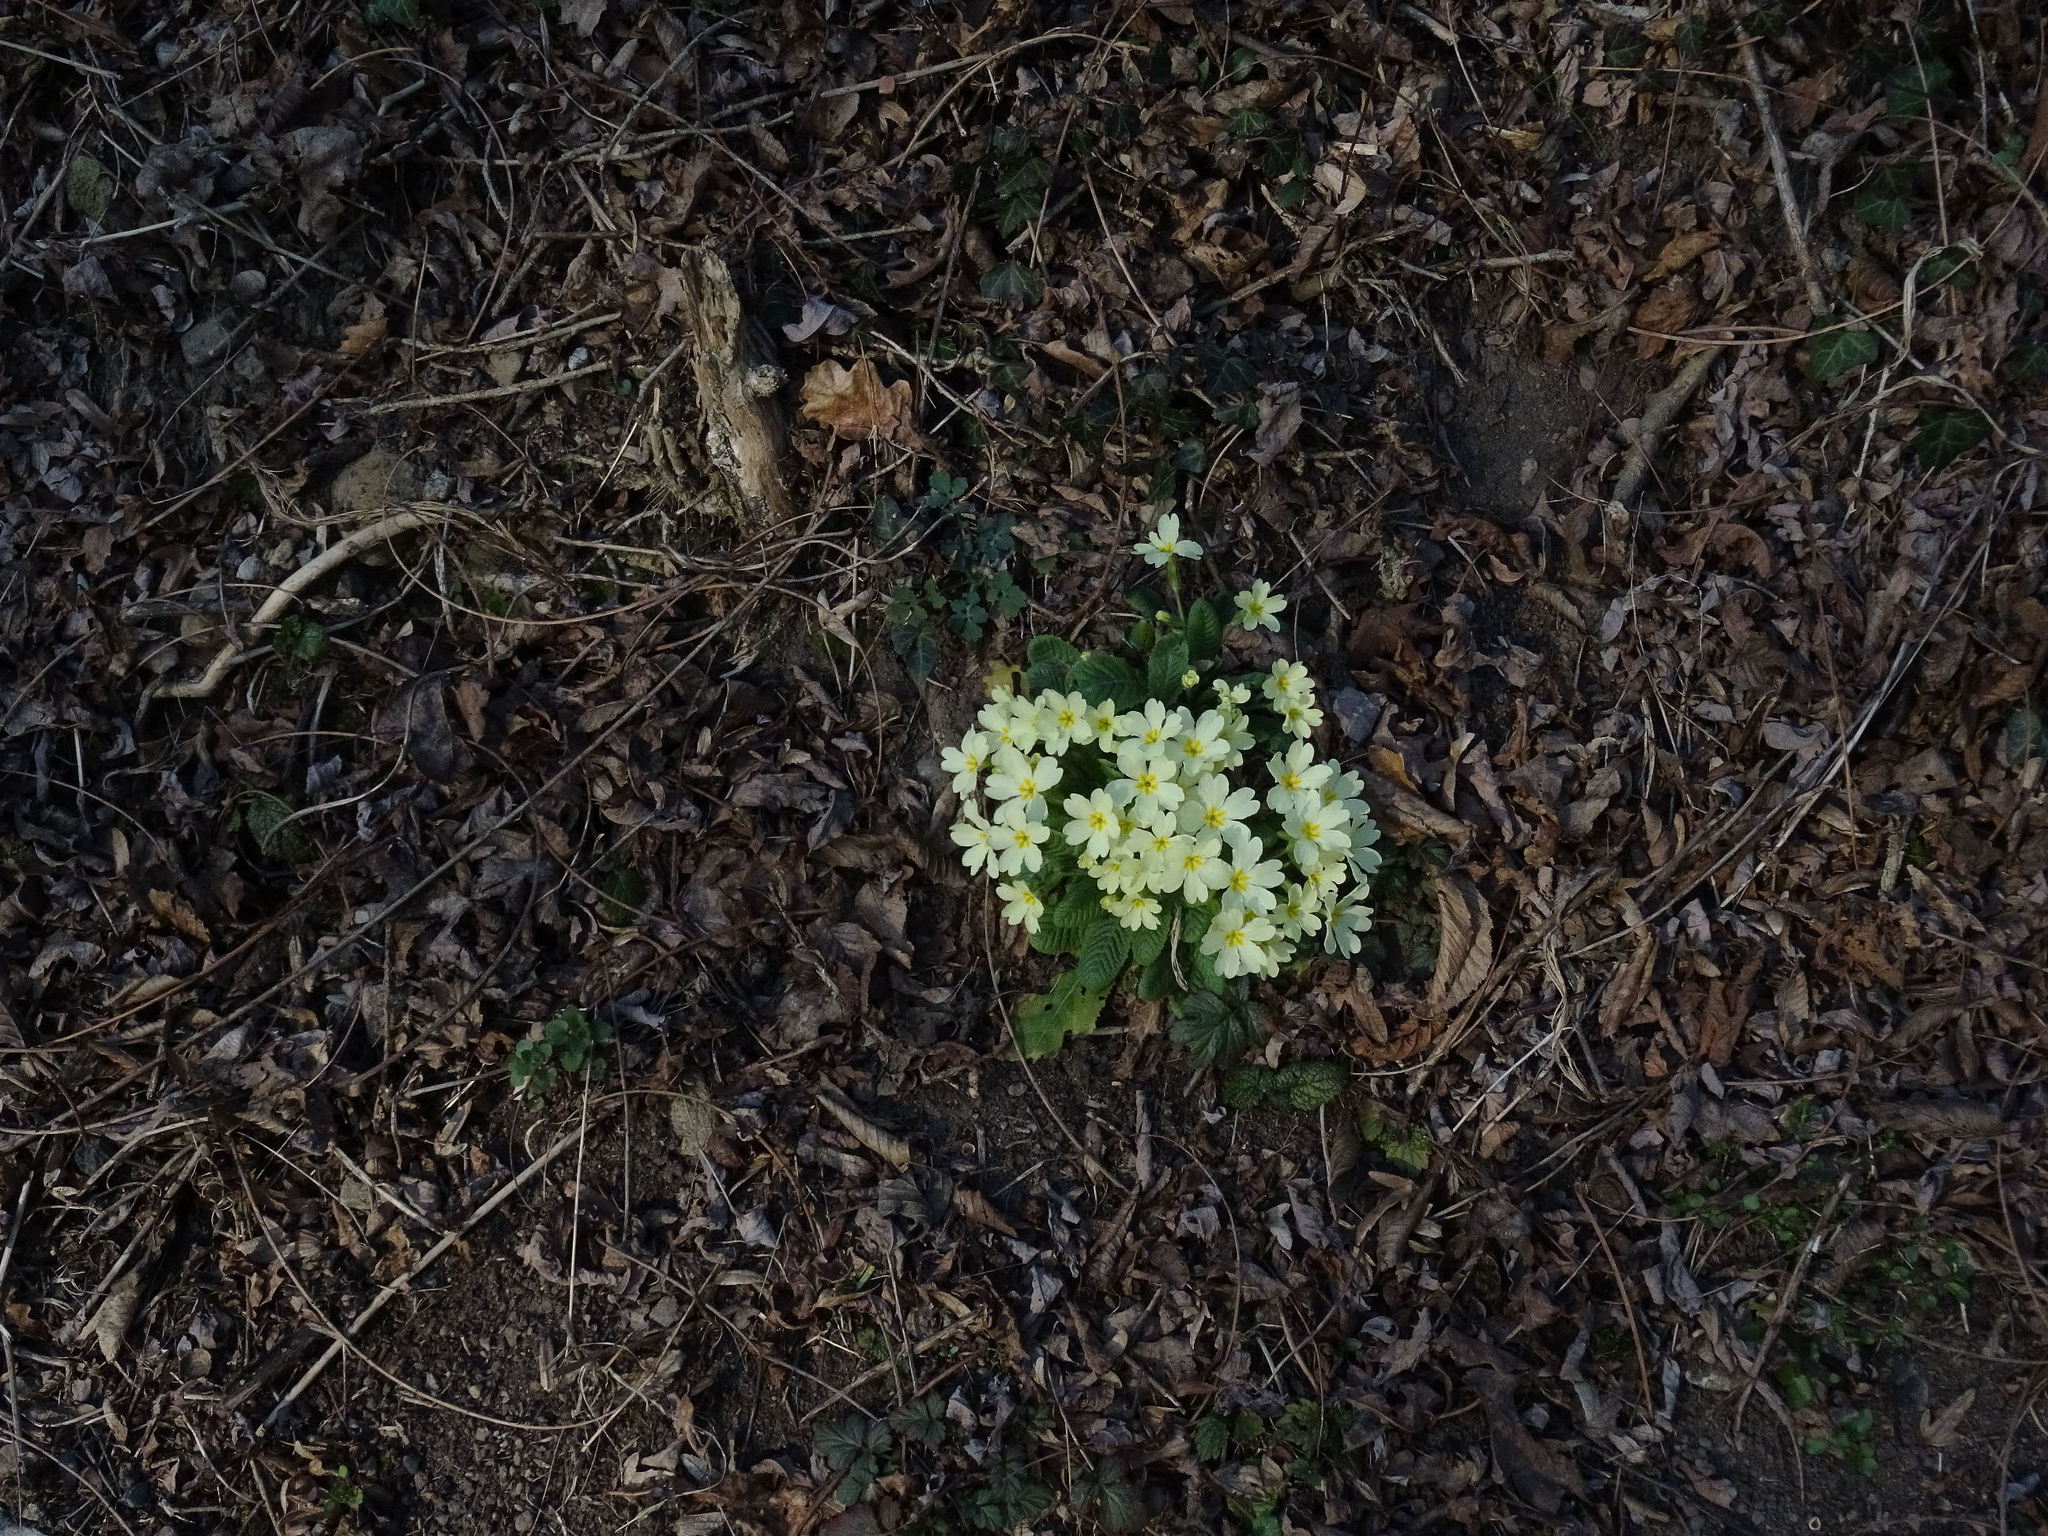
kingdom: Plantae
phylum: Tracheophyta
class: Magnoliopsida
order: Ericales
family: Primulaceae
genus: Primula
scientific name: Primula vulgaris
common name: Primrose
